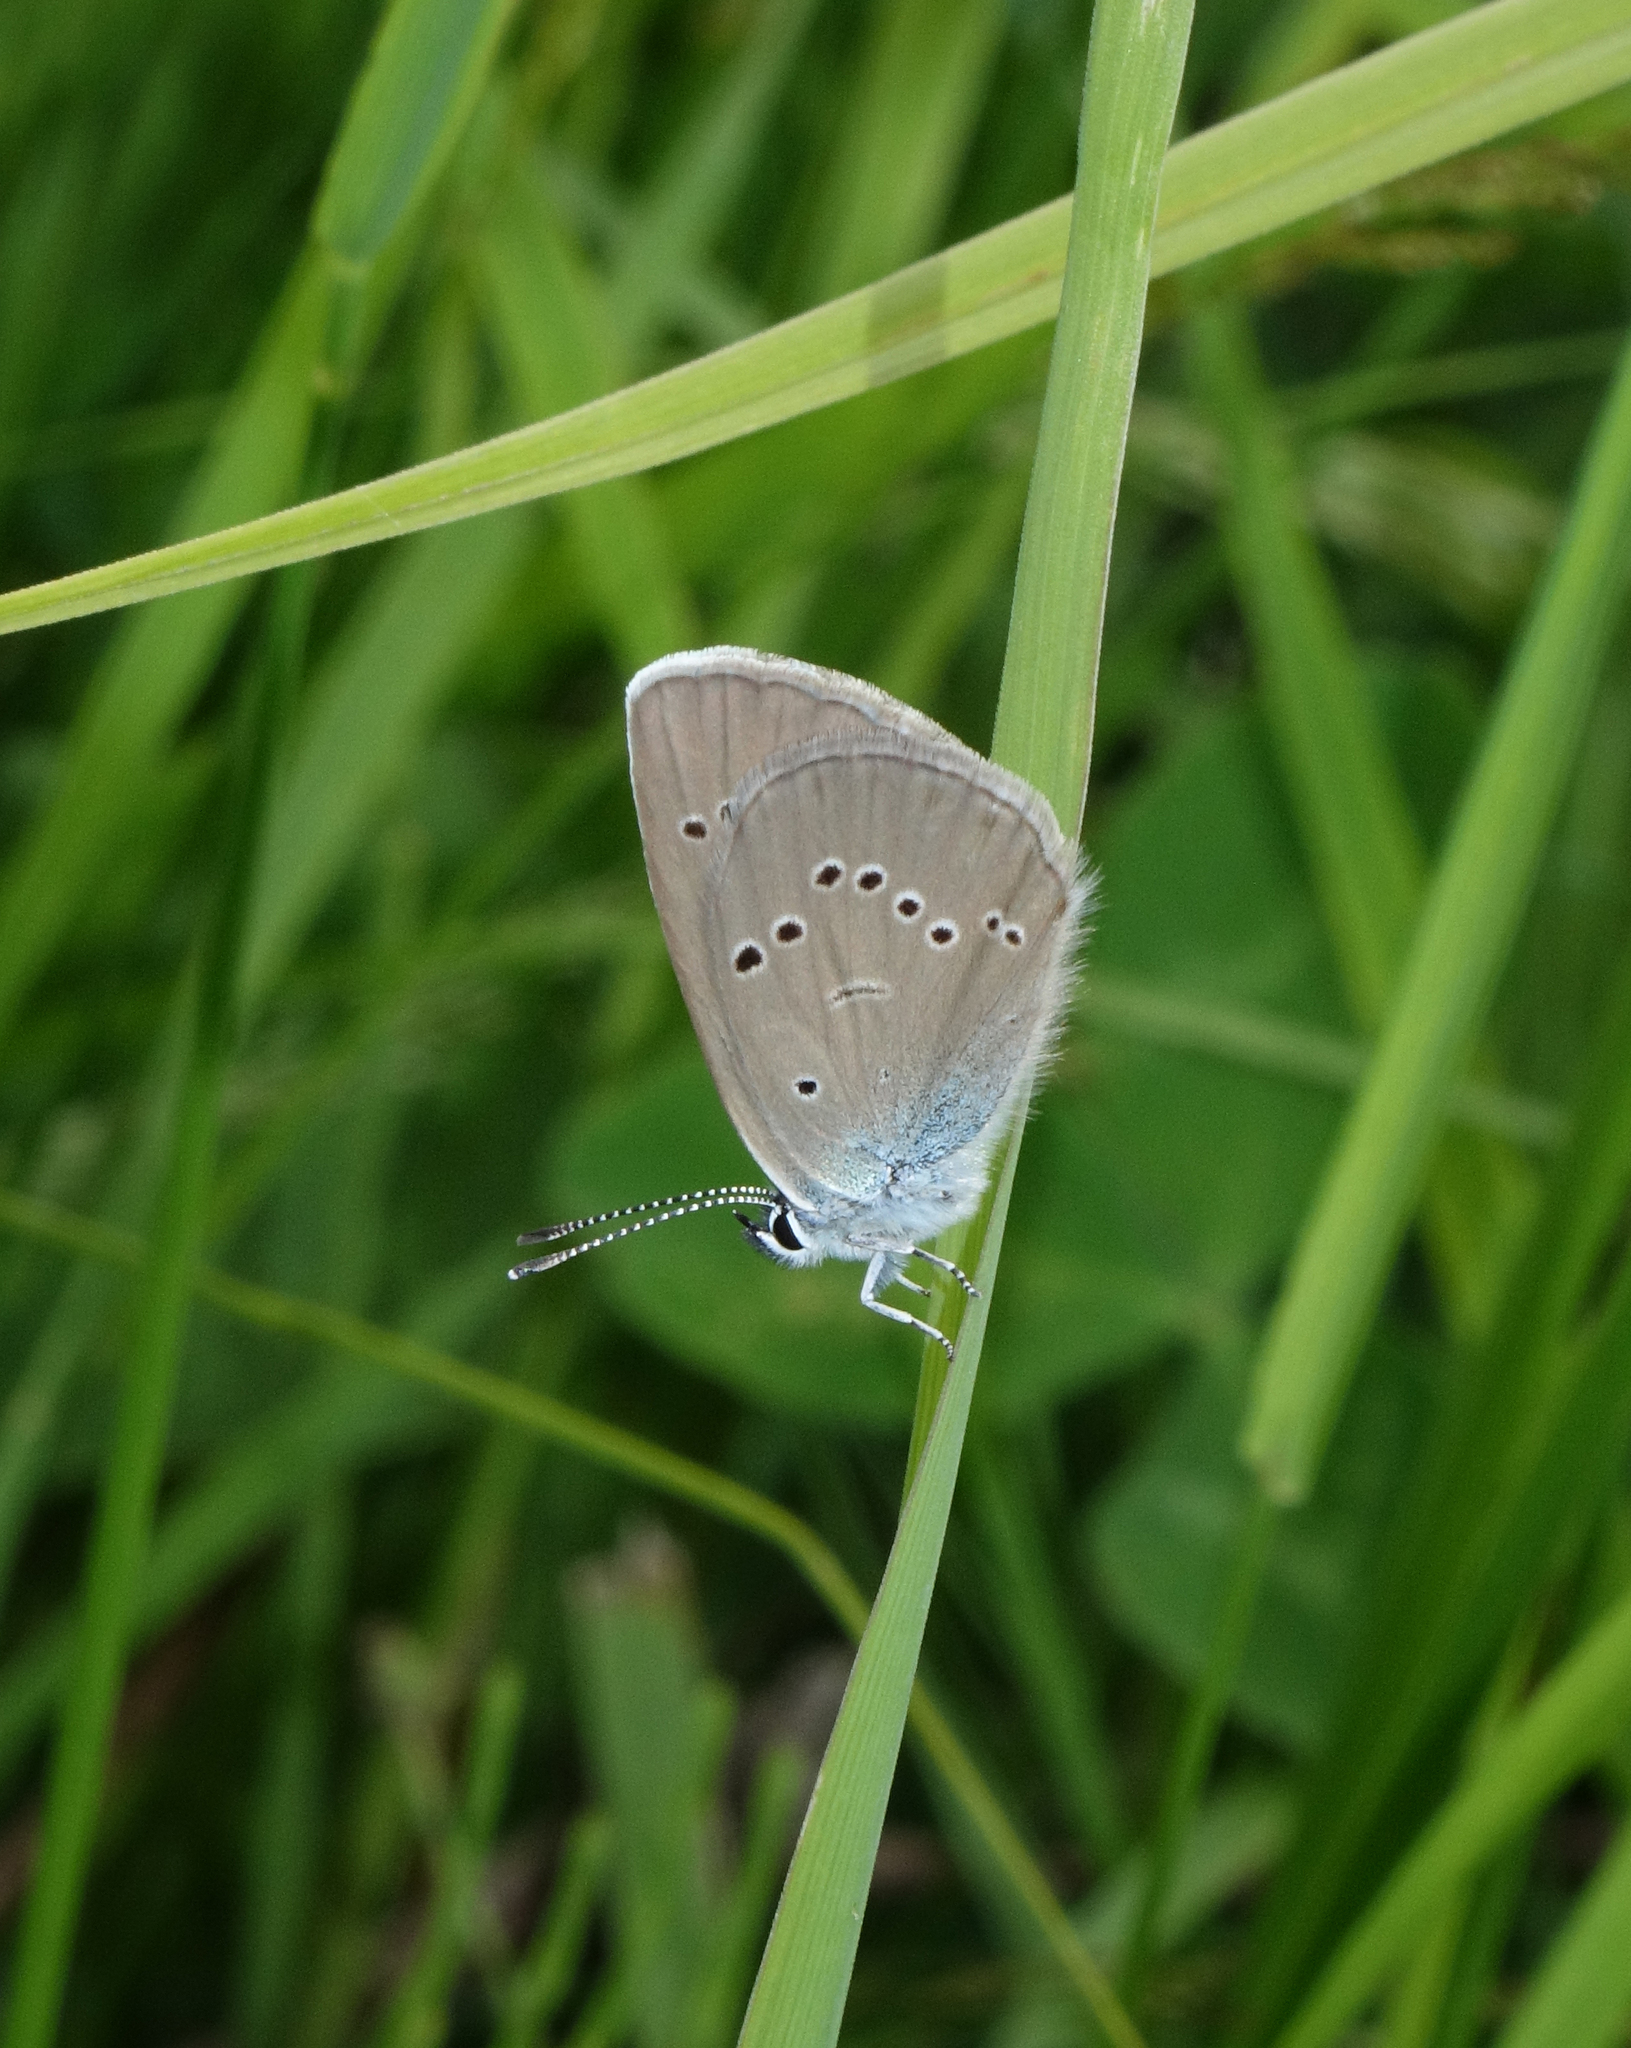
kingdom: Animalia
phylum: Arthropoda
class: Insecta
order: Lepidoptera
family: Lycaenidae
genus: Cyaniris
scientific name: Cyaniris semiargus
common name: Mazarine blue
